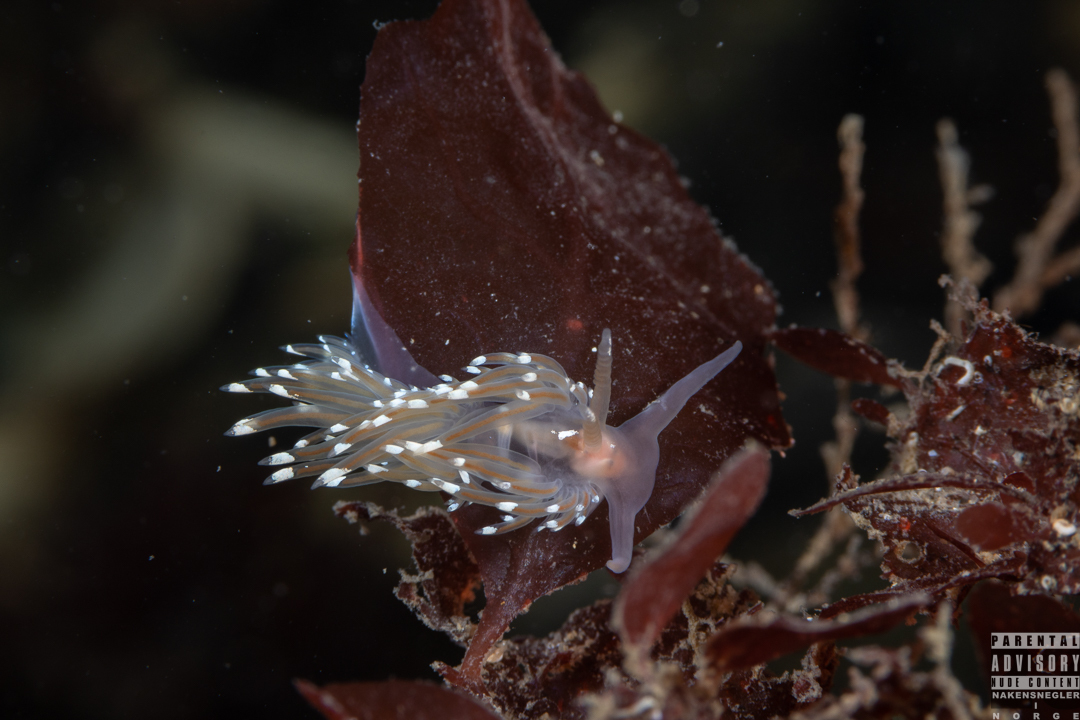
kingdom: Animalia
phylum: Mollusca
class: Gastropoda
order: Nudibranchia
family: Facelinidae
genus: Facelina
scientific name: Facelina bostoniensis
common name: Boston facelina
